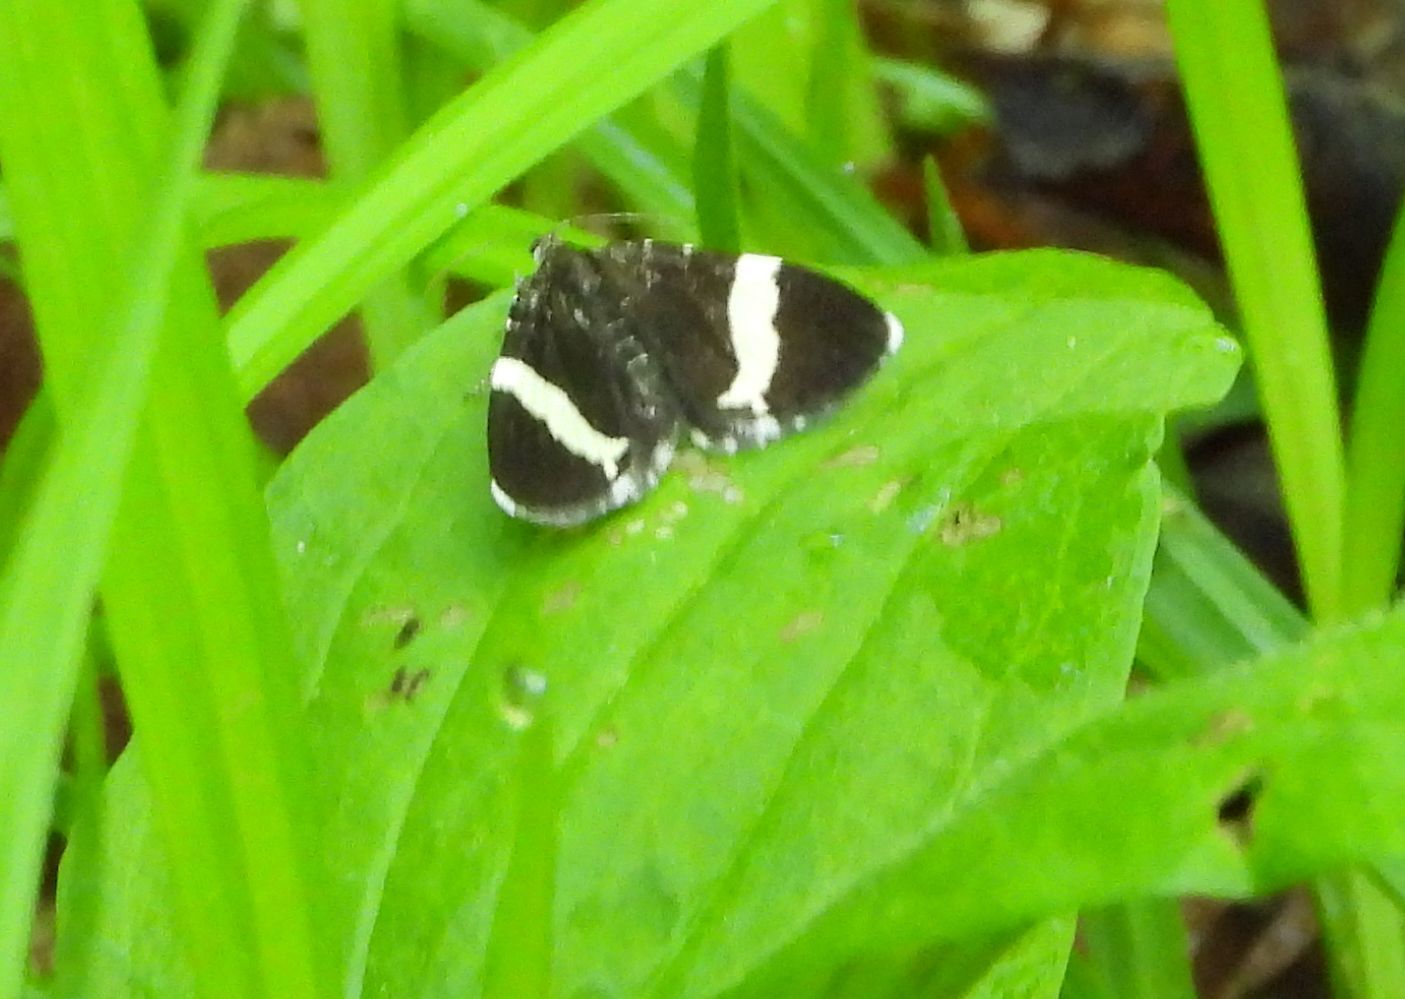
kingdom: Animalia
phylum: Arthropoda
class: Insecta
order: Lepidoptera
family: Geometridae
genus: Trichodezia
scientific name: Trichodezia albovittata
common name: White striped black
